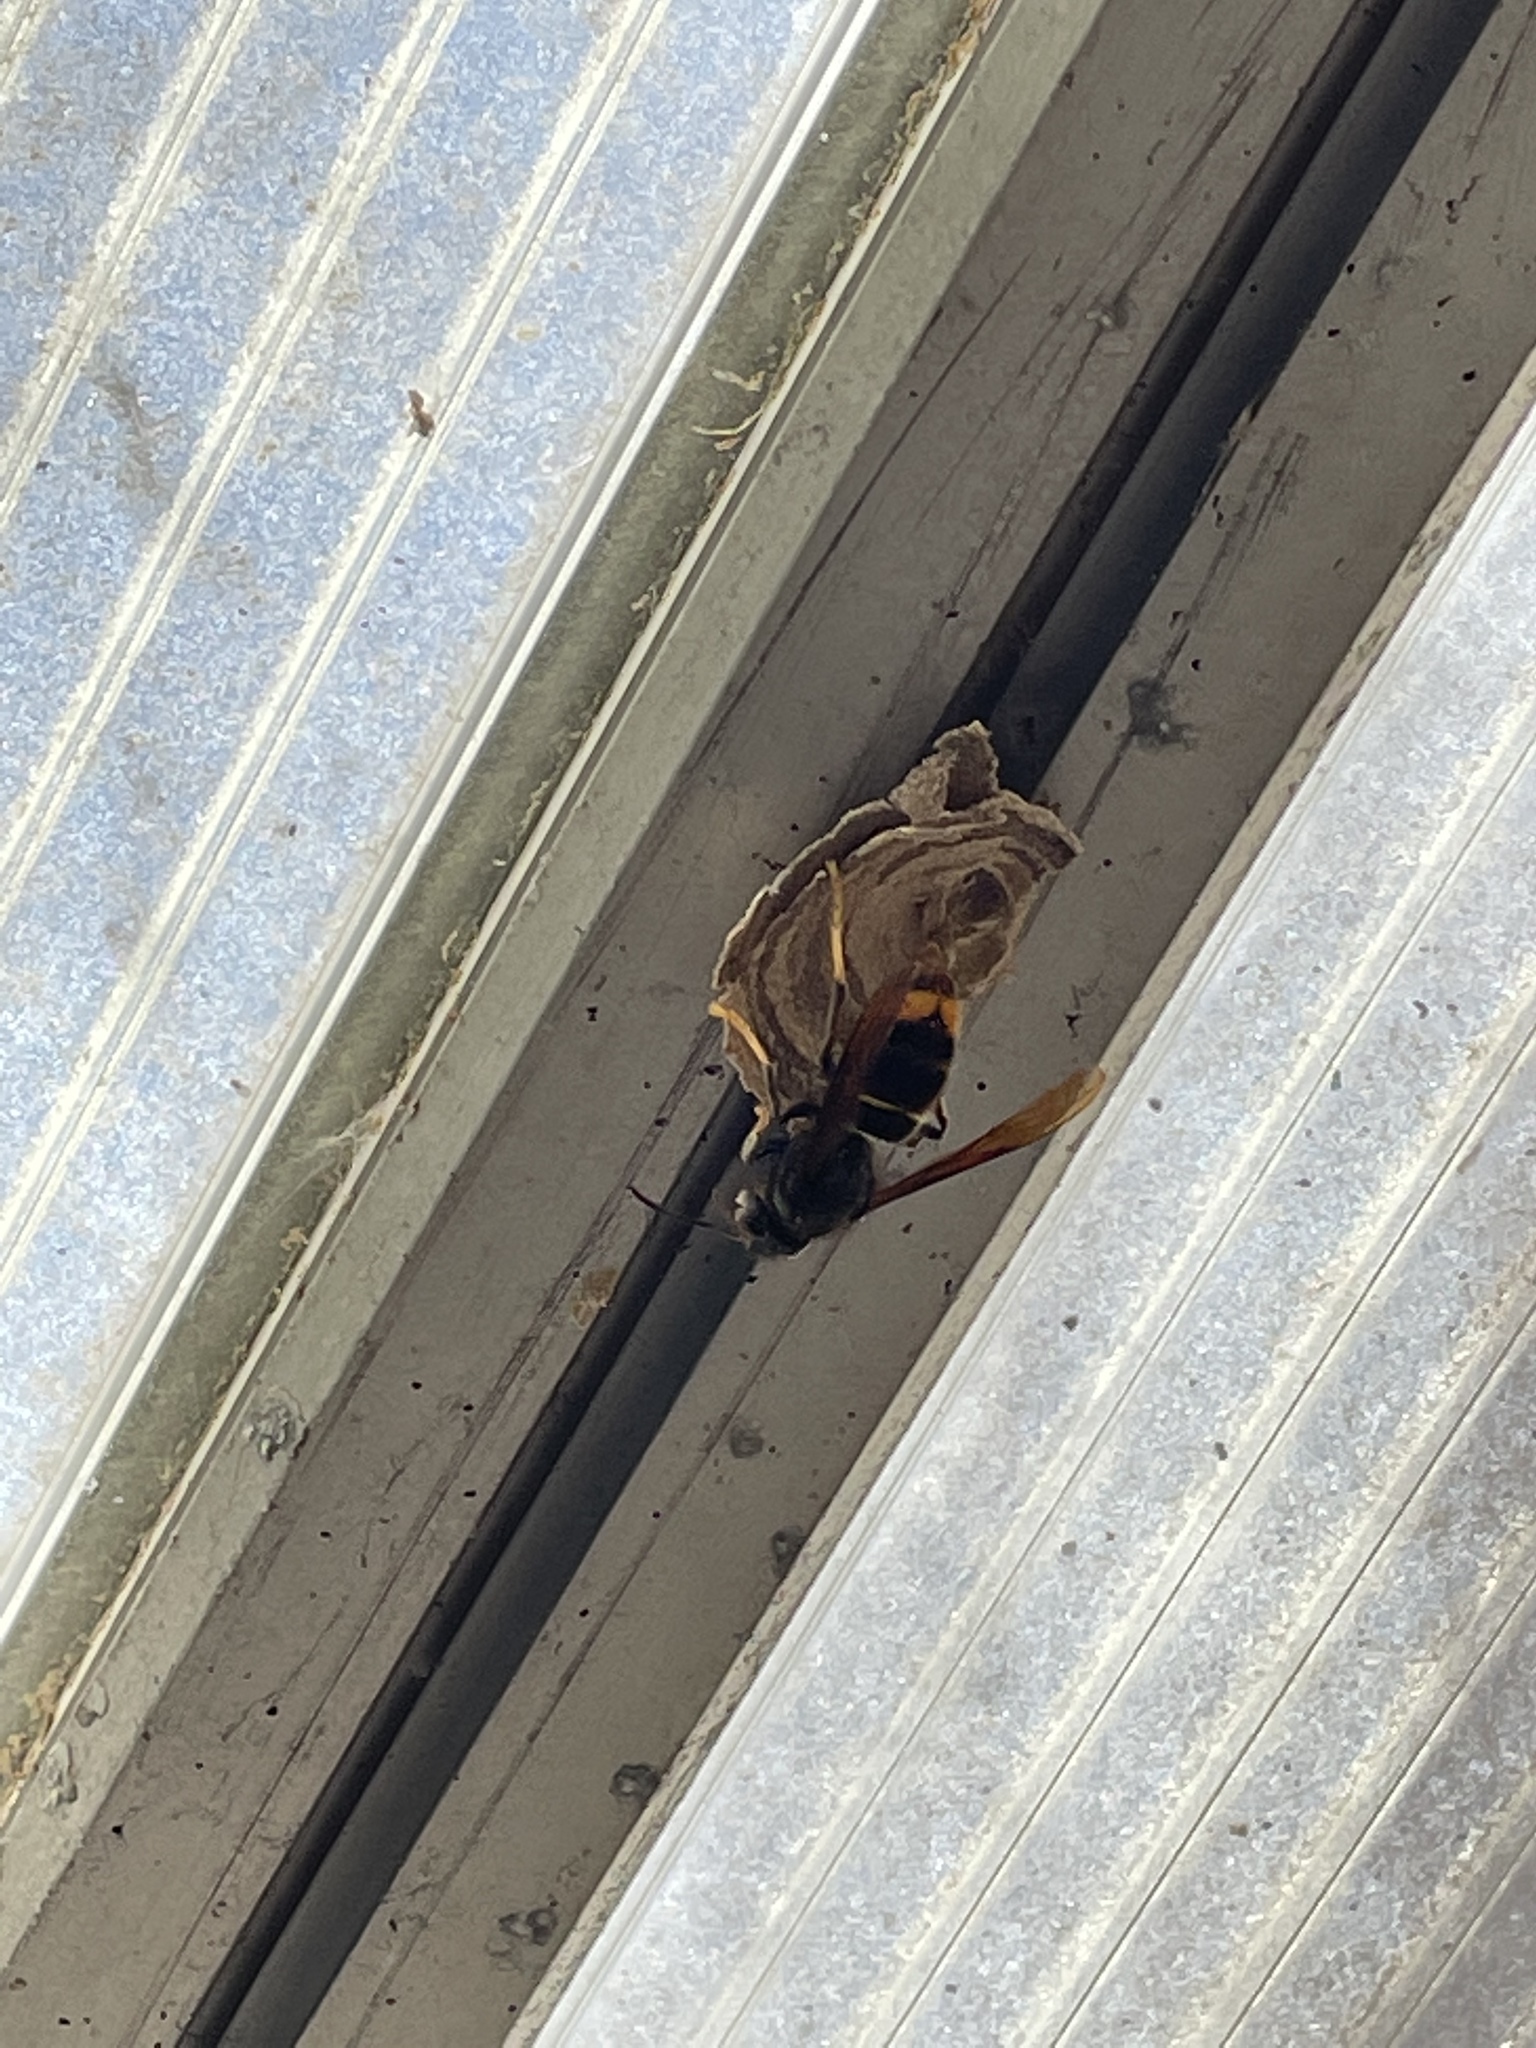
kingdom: Animalia
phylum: Arthropoda
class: Insecta
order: Hymenoptera
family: Vespidae
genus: Vespa
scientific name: Vespa velutina
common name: Asian hornet
